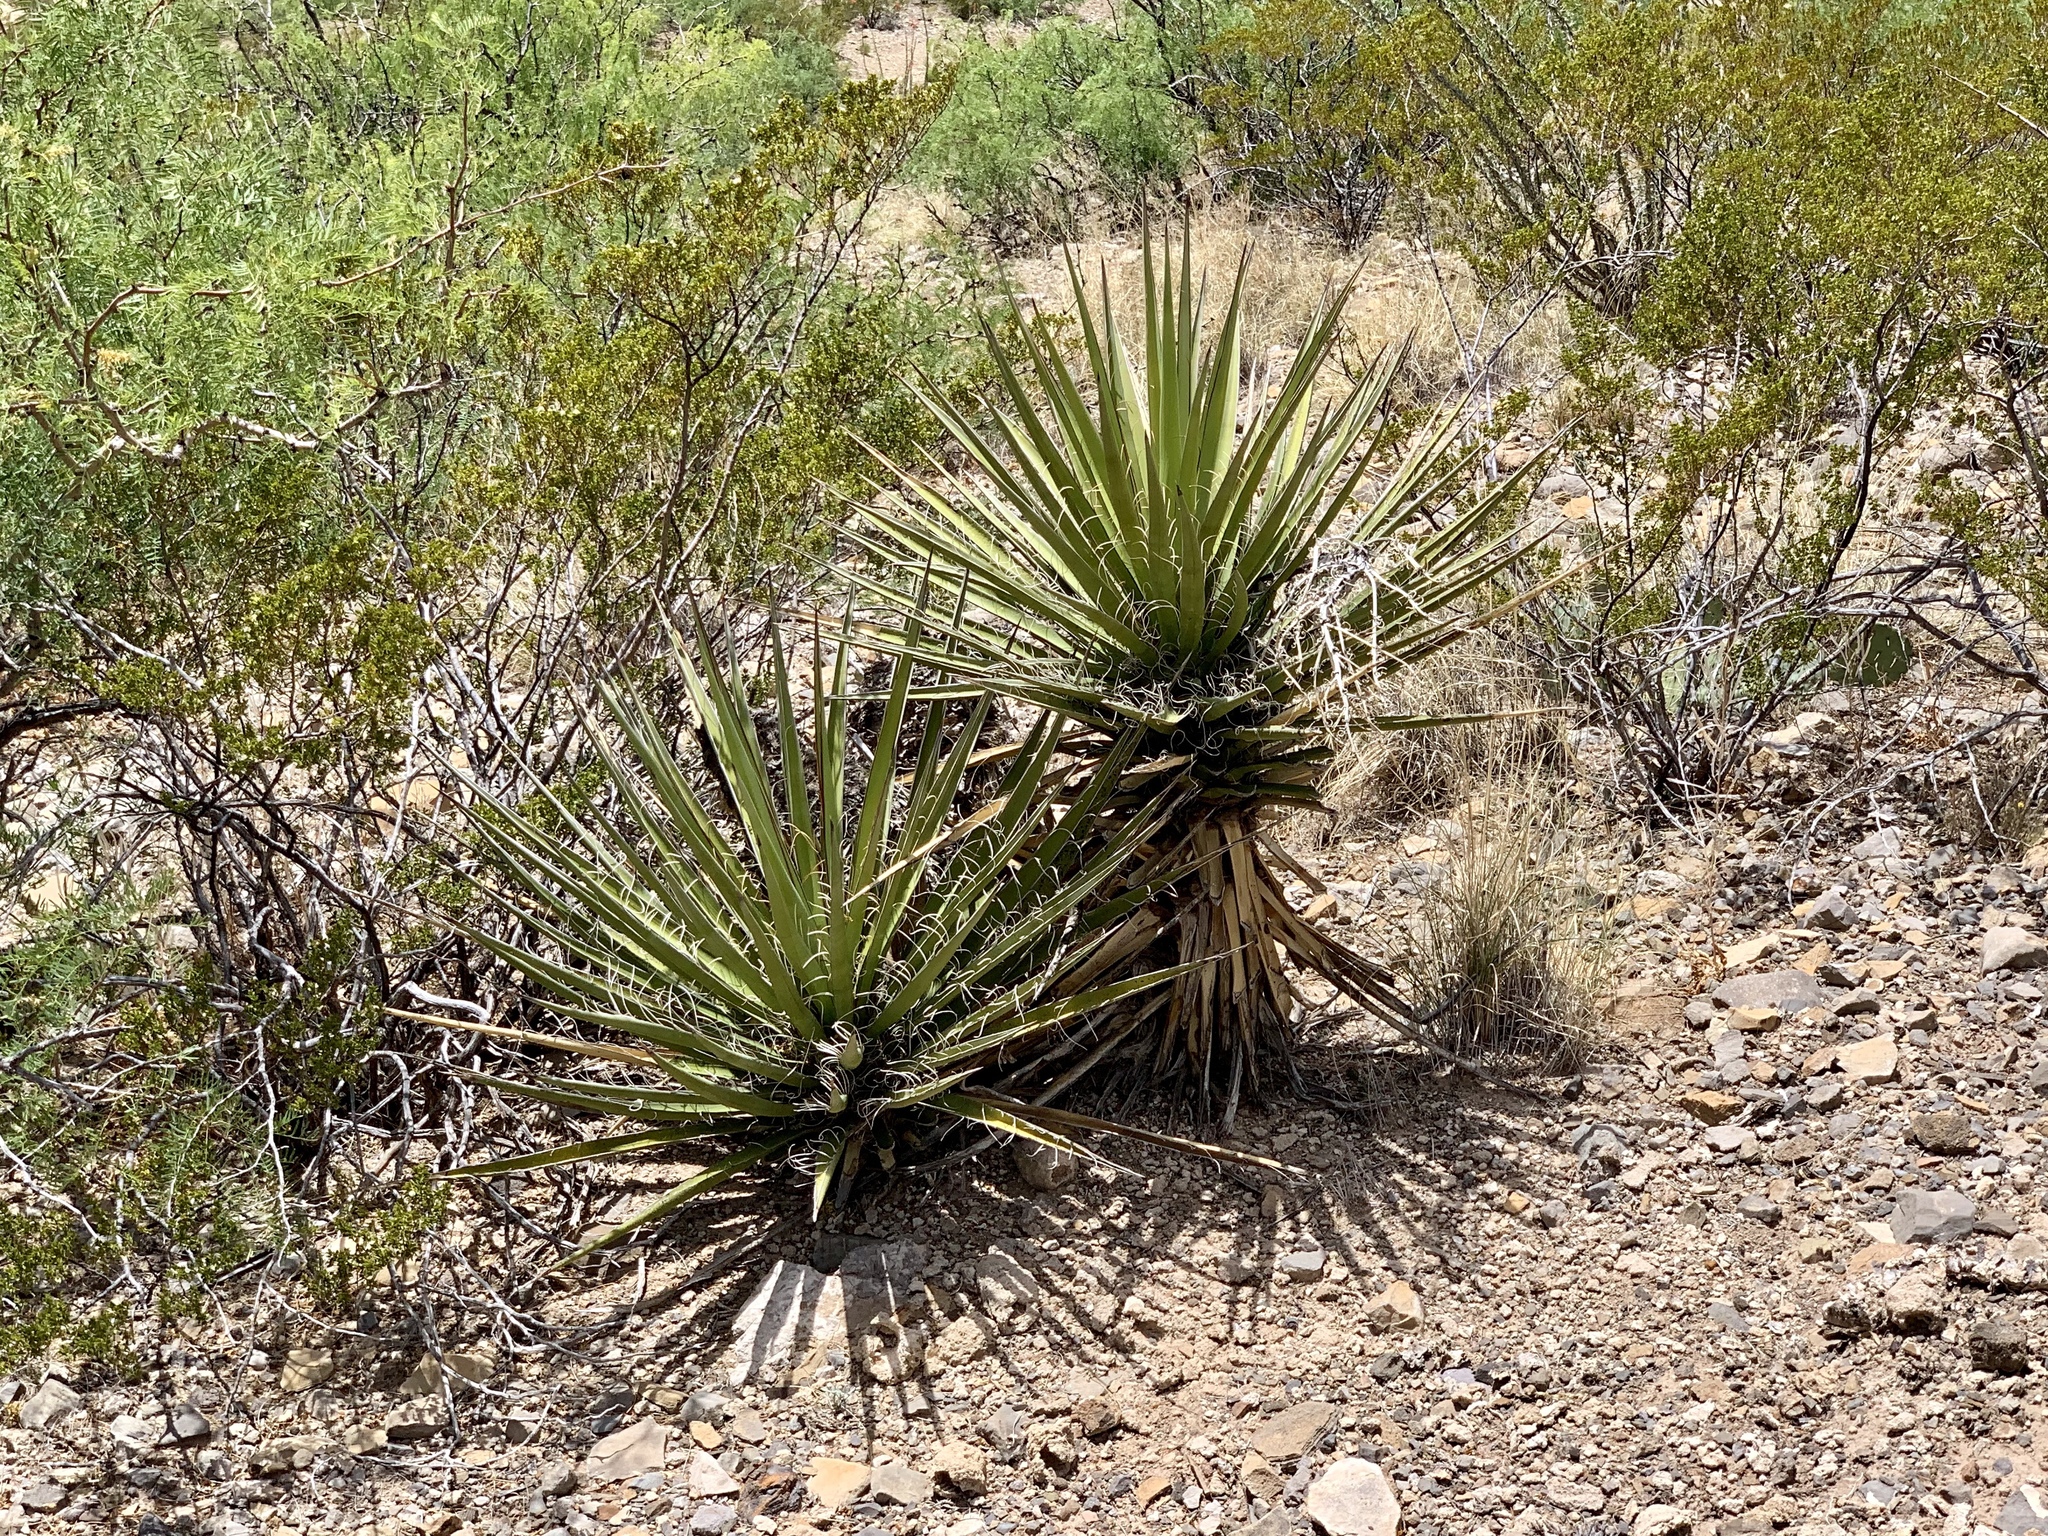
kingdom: Plantae
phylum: Tracheophyta
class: Liliopsida
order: Asparagales
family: Asparagaceae
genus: Yucca
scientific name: Yucca treculiana
